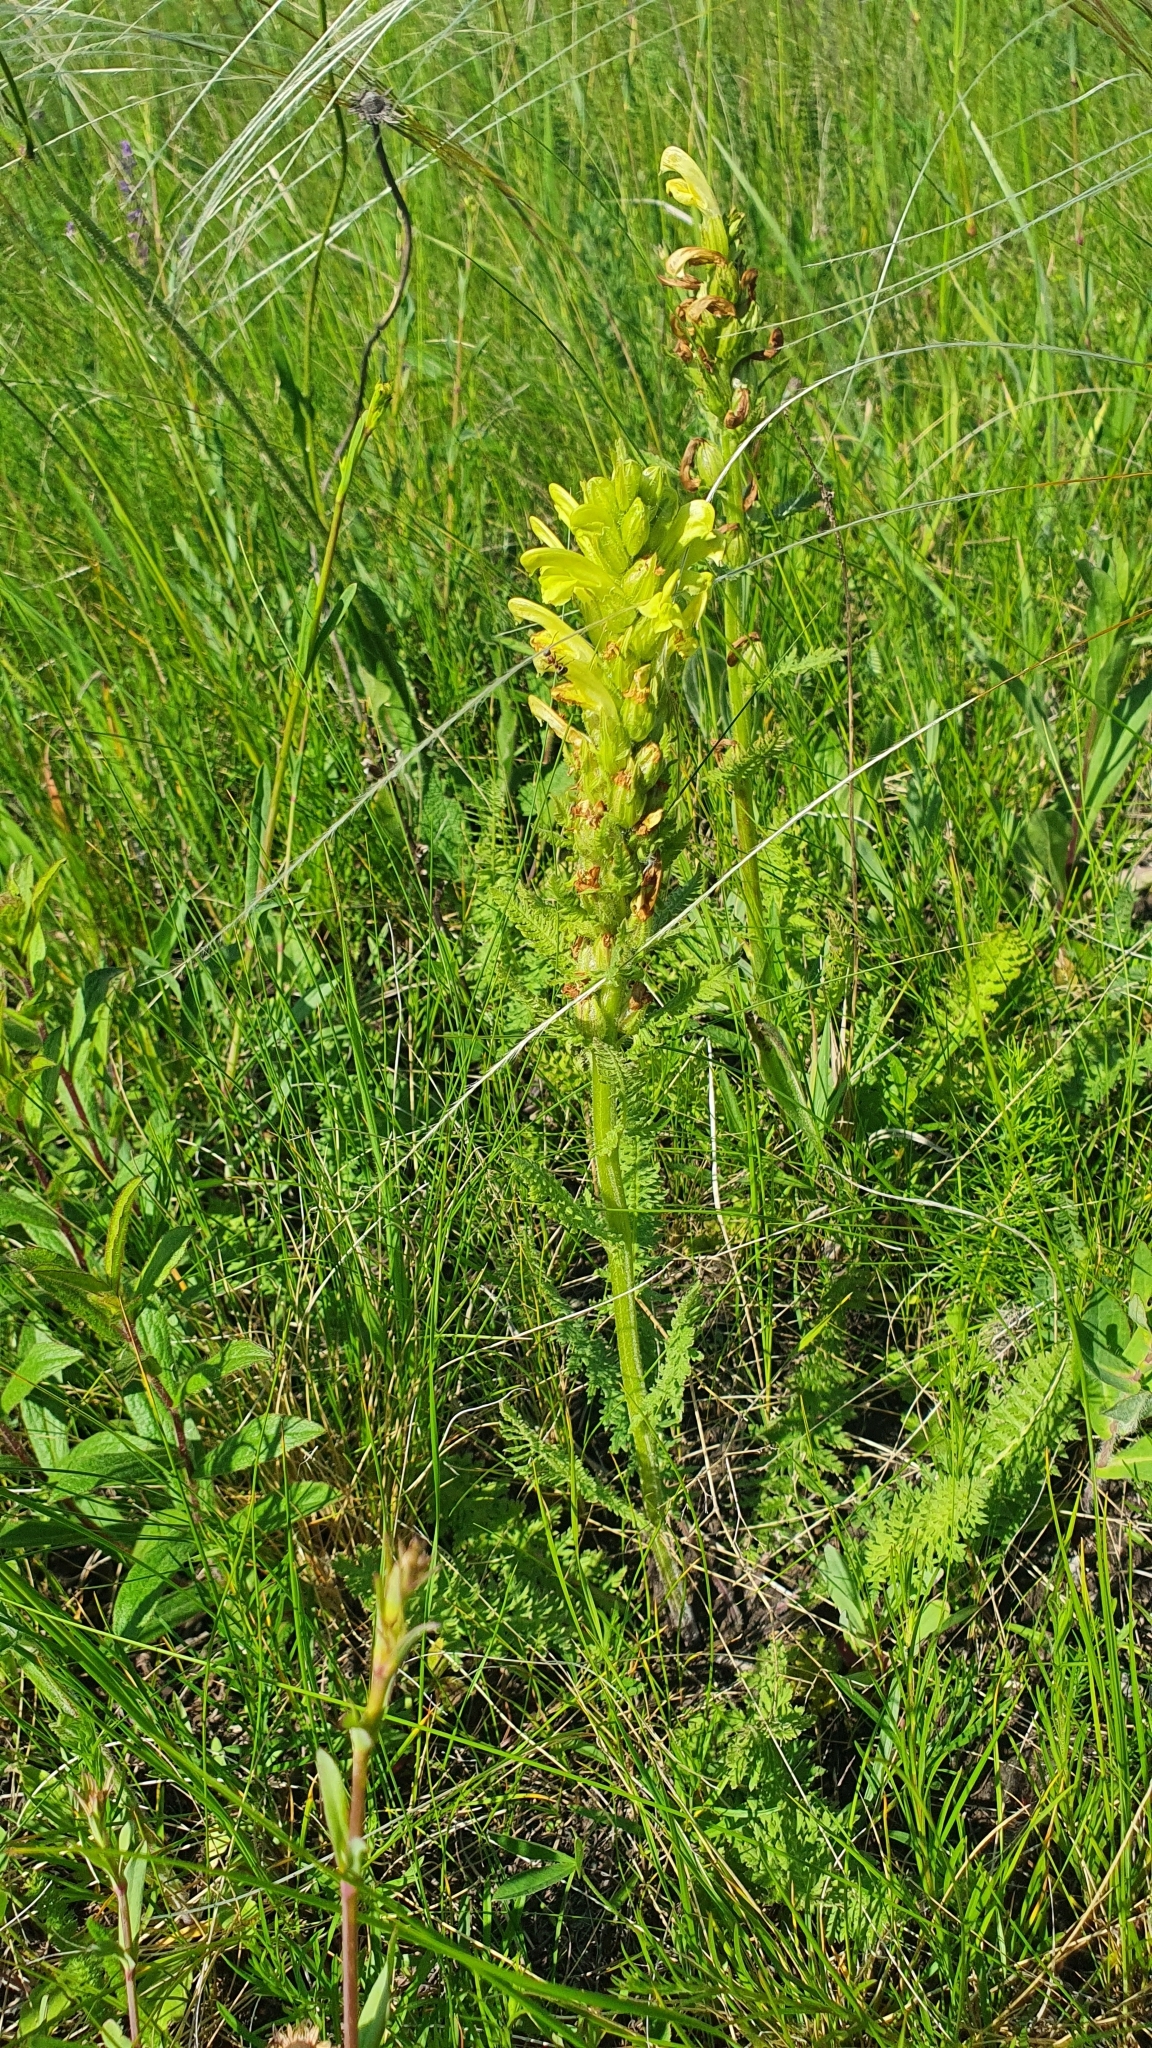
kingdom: Plantae
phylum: Tracheophyta
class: Magnoliopsida
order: Lamiales
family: Orobanchaceae
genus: Pedicularis
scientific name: Pedicularis kaufmannii
